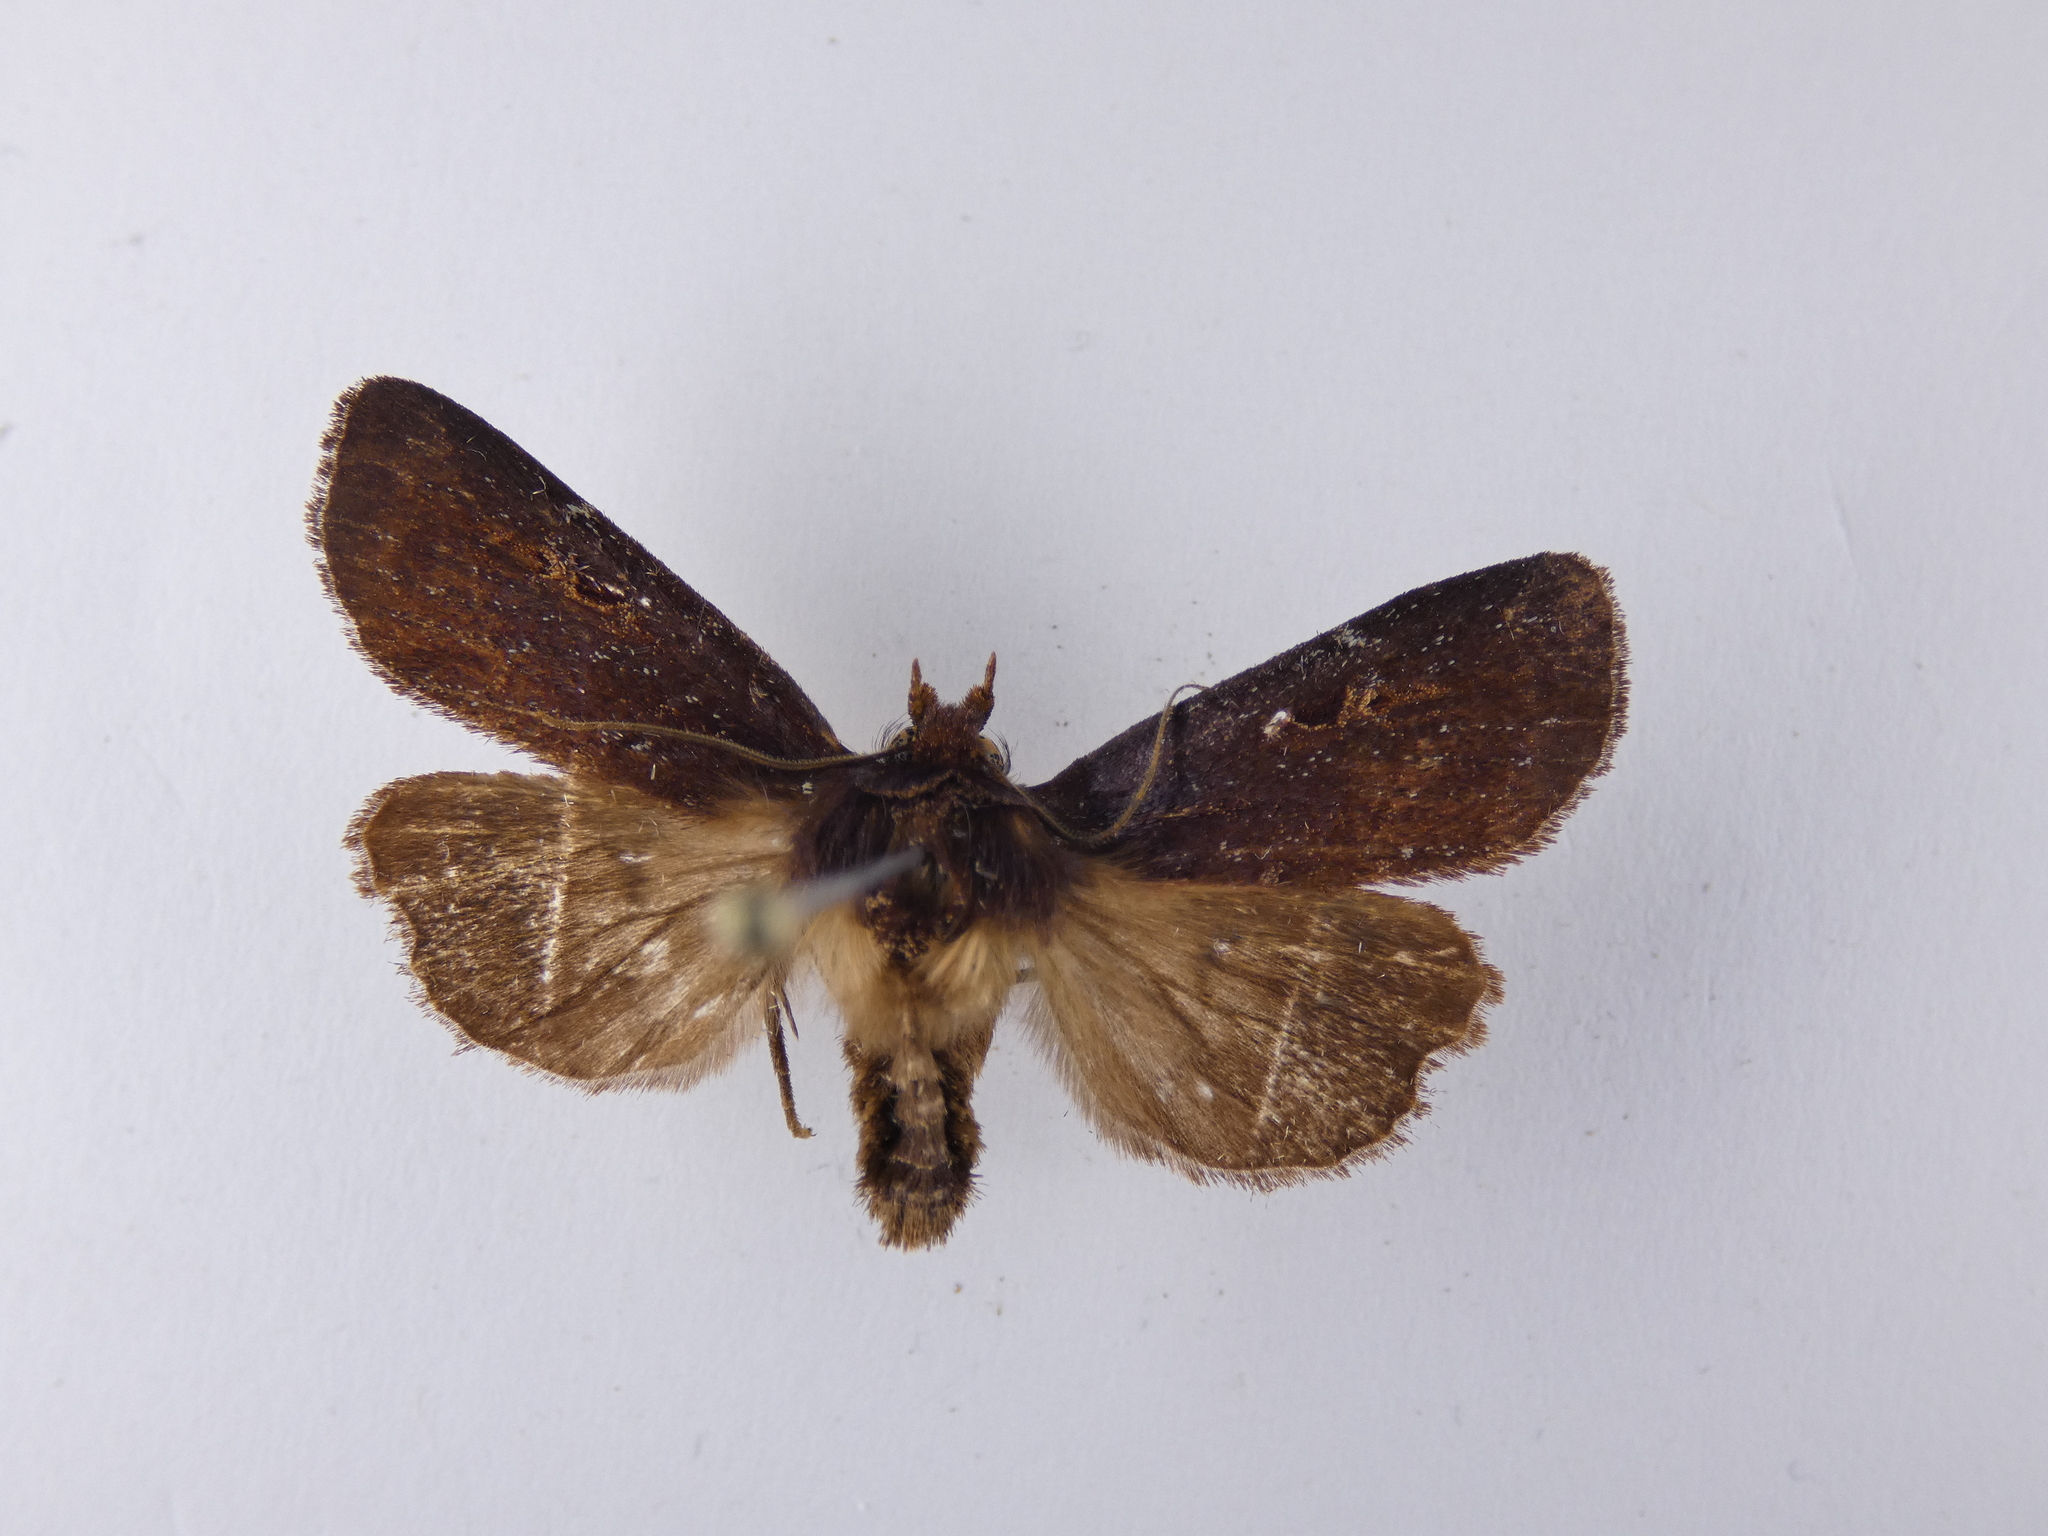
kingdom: Animalia
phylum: Arthropoda
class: Insecta
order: Lepidoptera
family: Noctuidae
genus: Austramathes
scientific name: Austramathes purpurea
